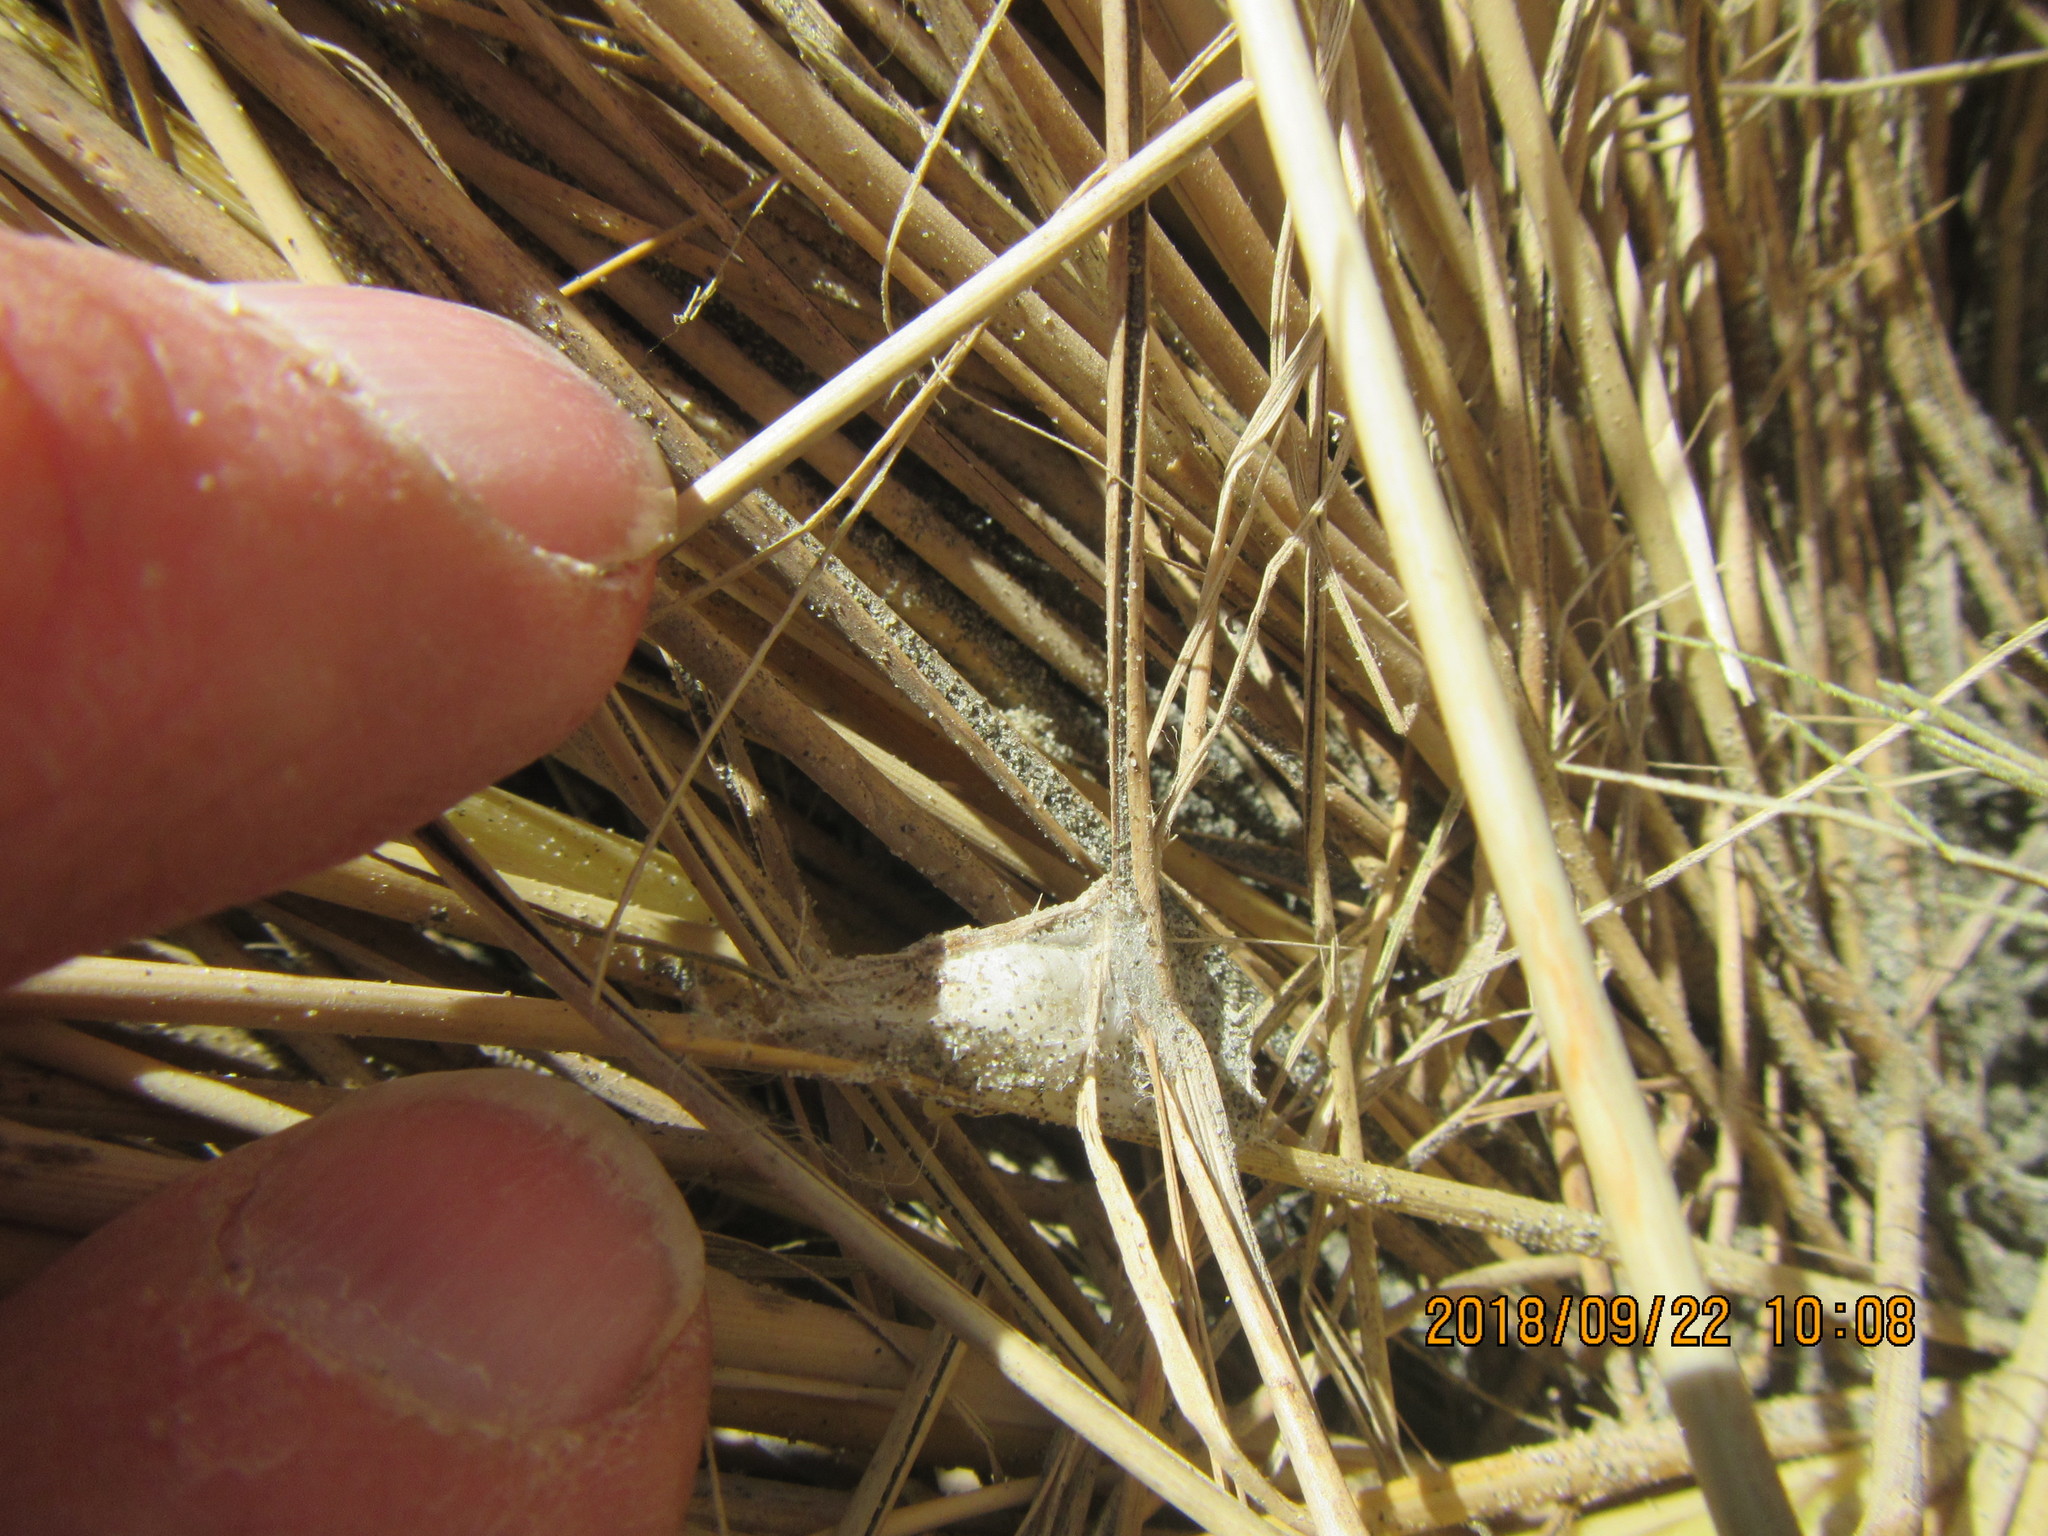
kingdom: Animalia
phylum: Arthropoda
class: Arachnida
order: Araneae
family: Thomisidae
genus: Sidymella
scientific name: Sidymella trapezia
